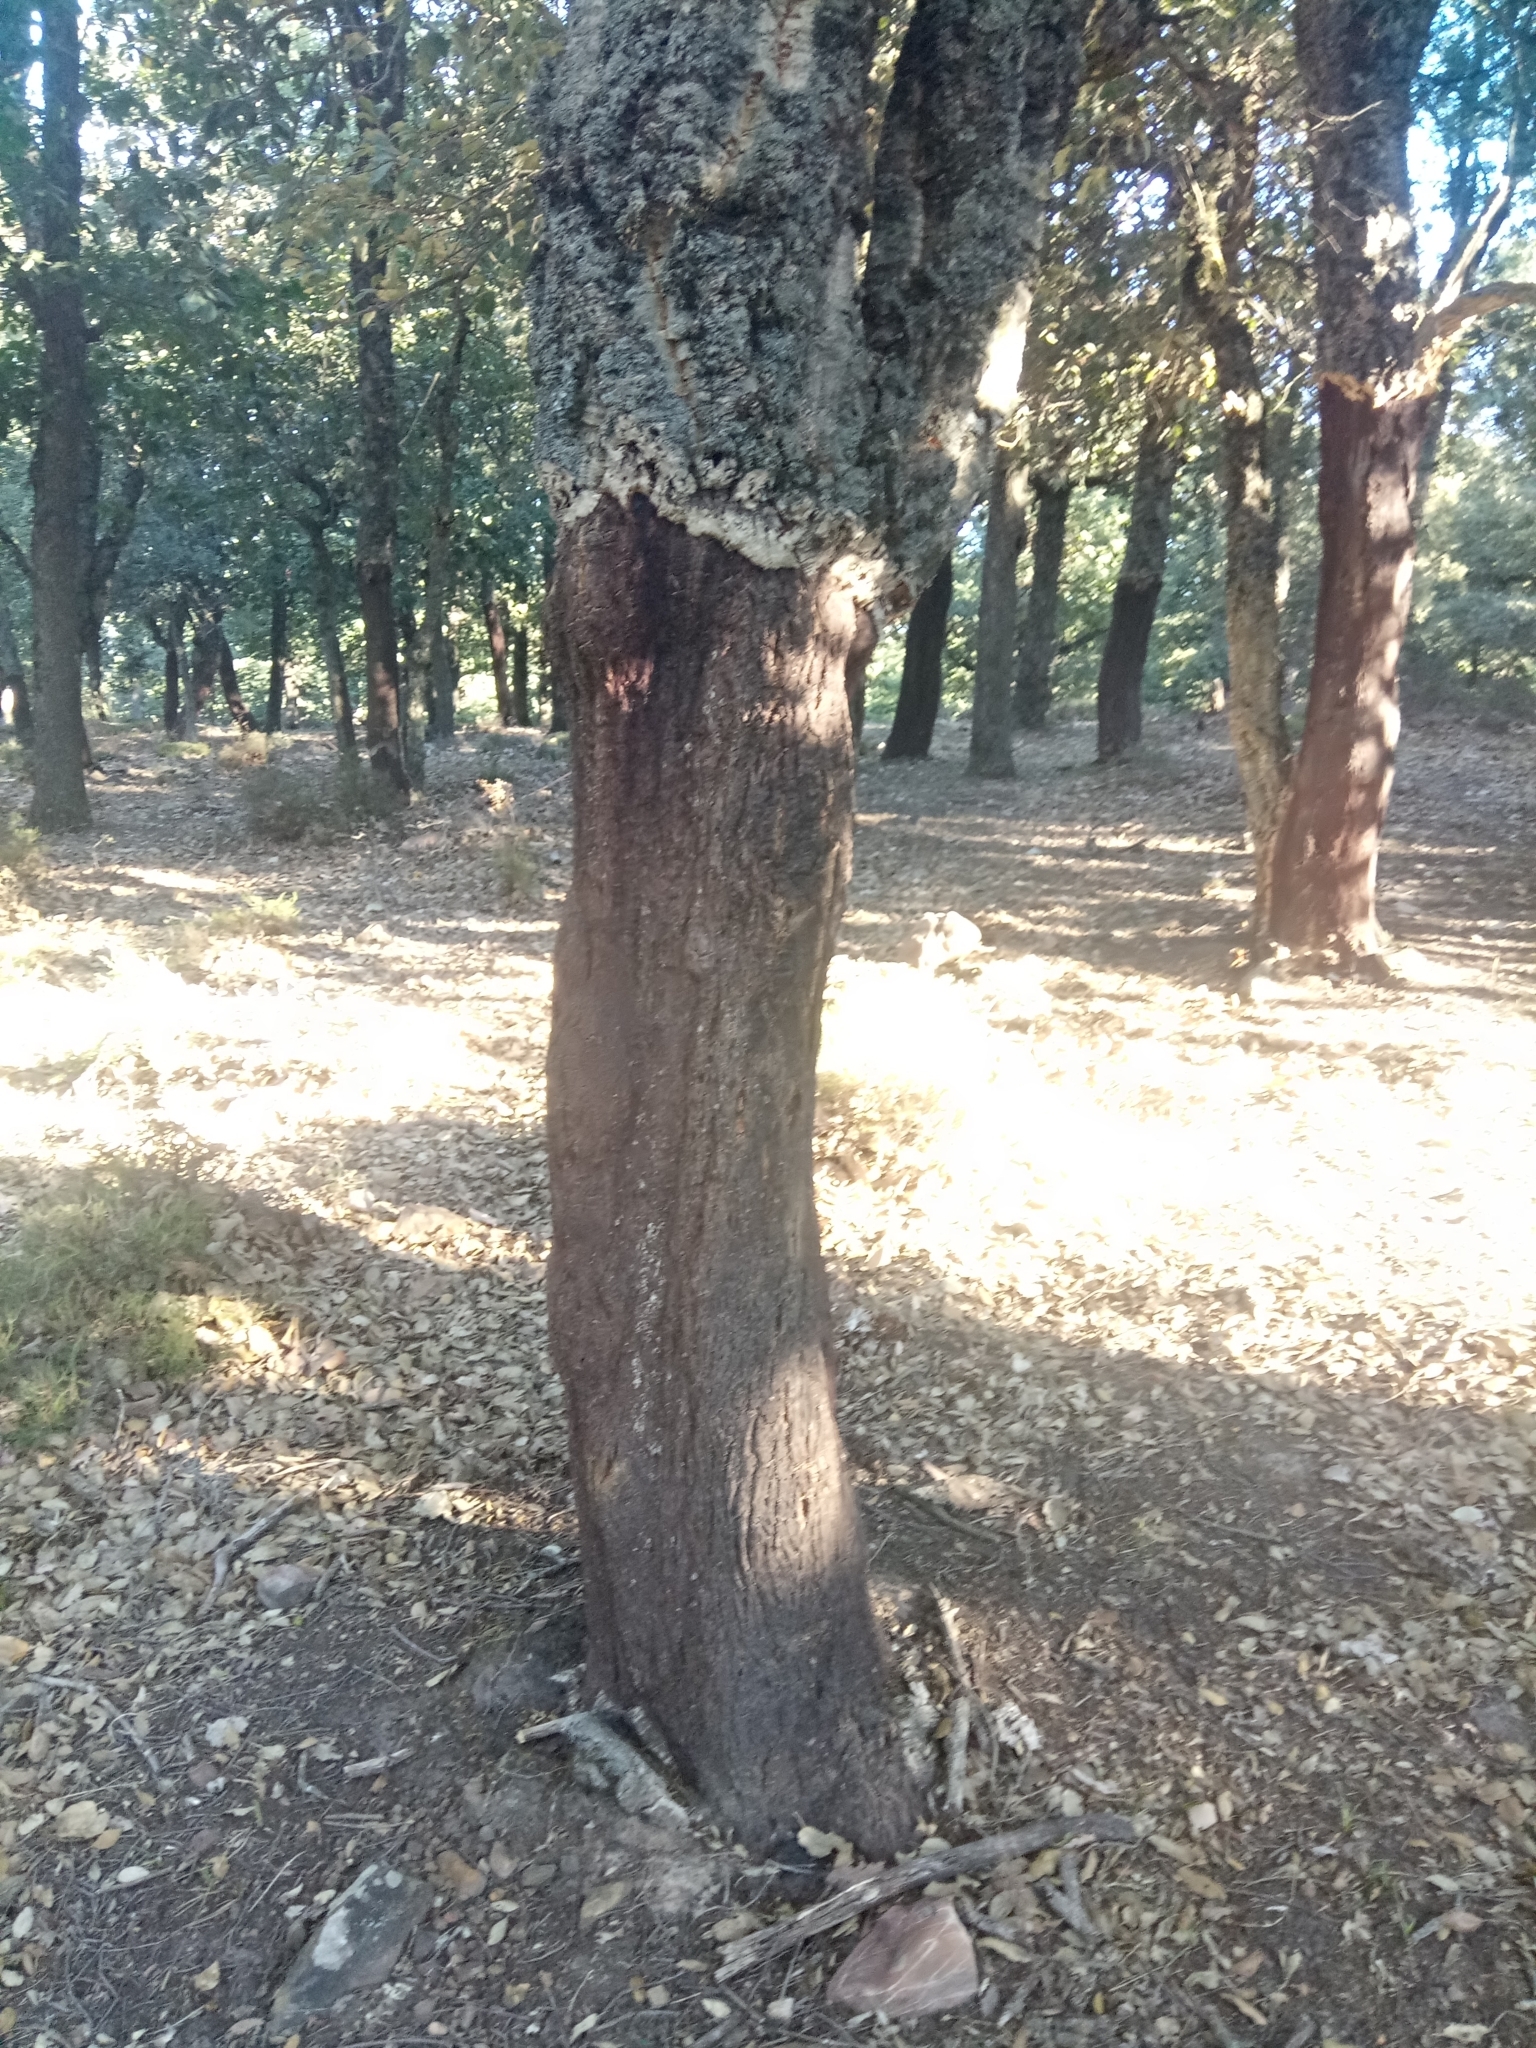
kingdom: Plantae
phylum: Tracheophyta
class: Magnoliopsida
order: Fagales
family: Fagaceae
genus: Quercus
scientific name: Quercus suber
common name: Cork oak
